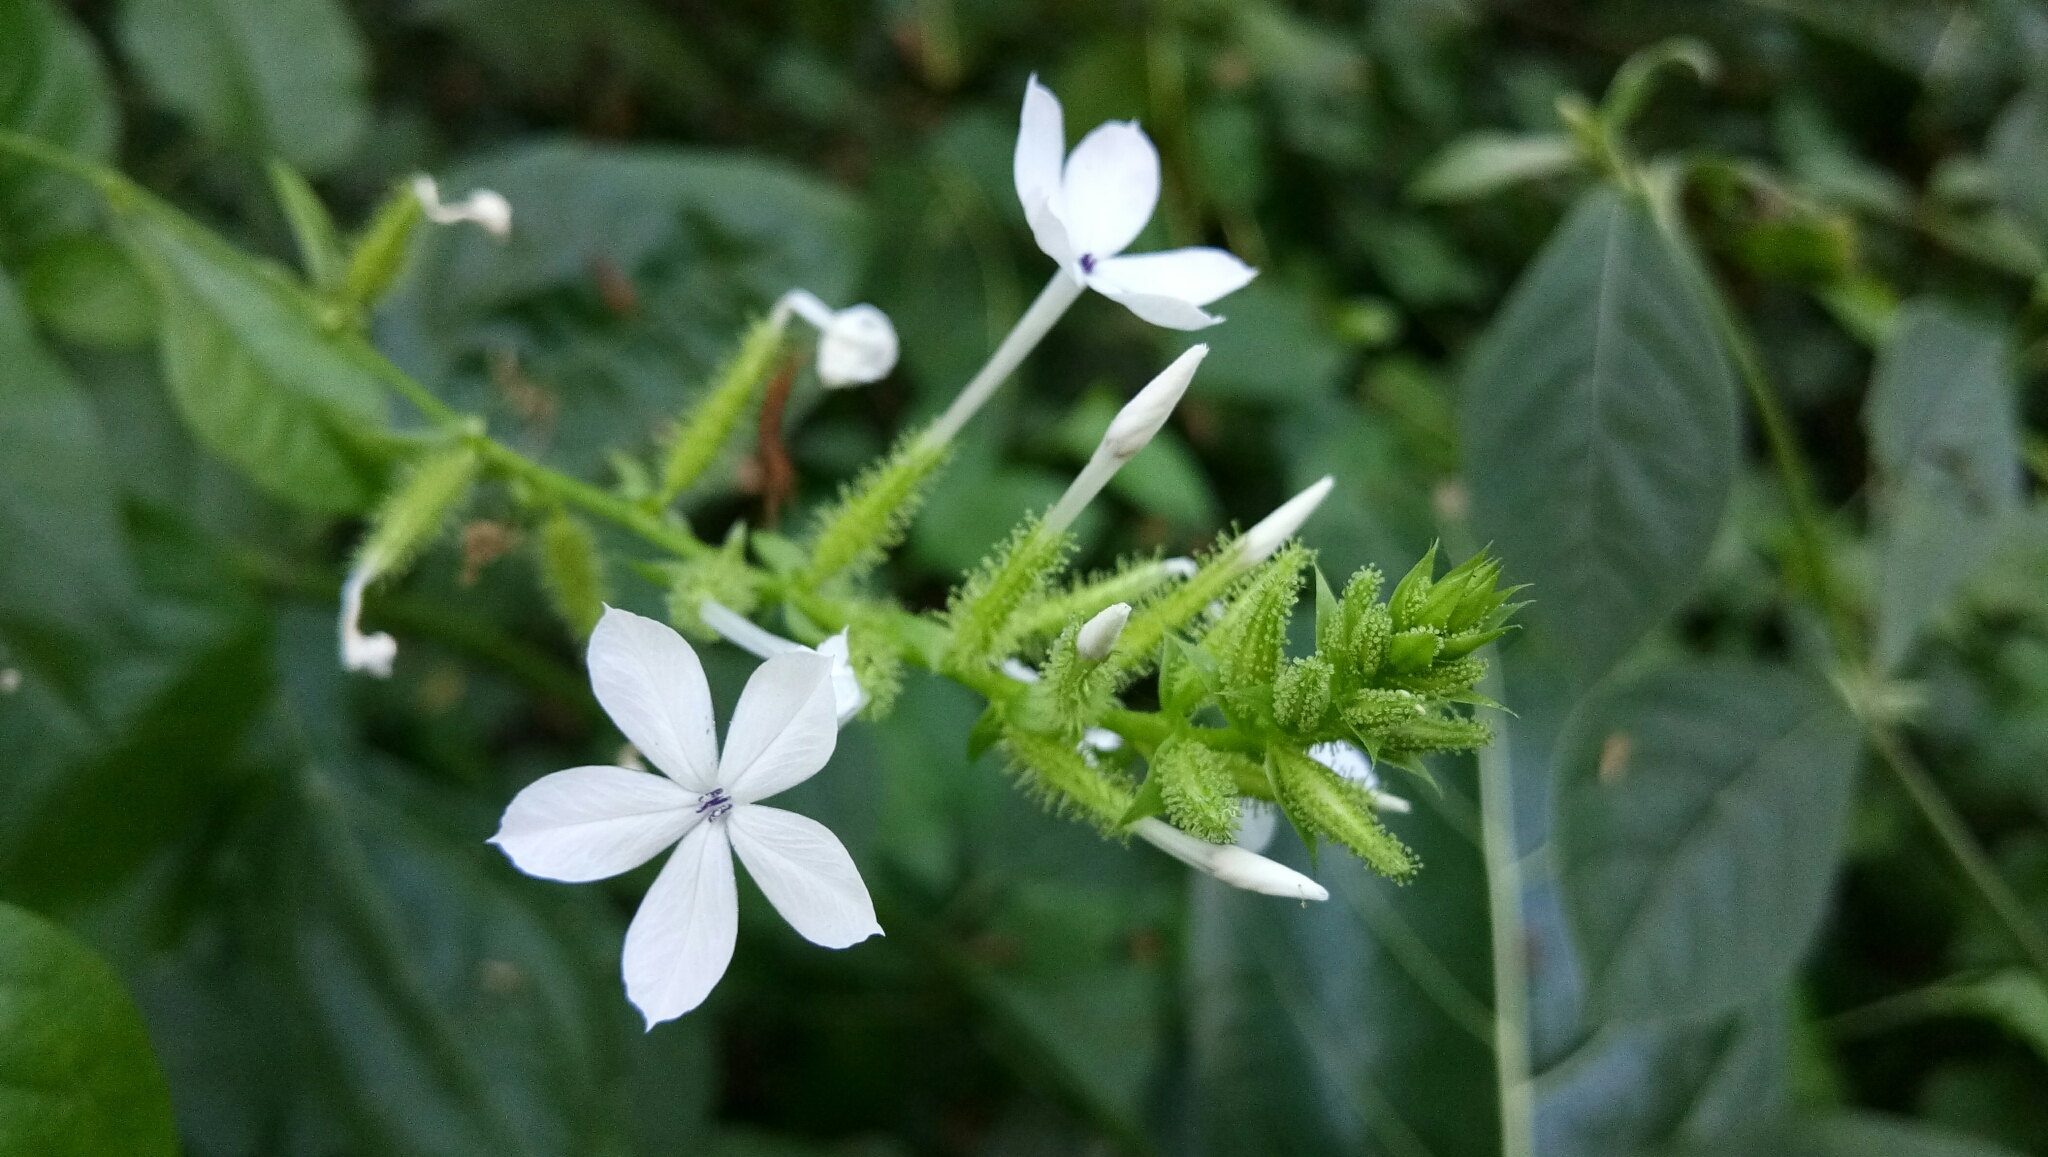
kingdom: Plantae
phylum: Tracheophyta
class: Magnoliopsida
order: Caryophyllales
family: Plumbaginaceae
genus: Plumbago
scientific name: Plumbago zeylanica
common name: Doctorbush
